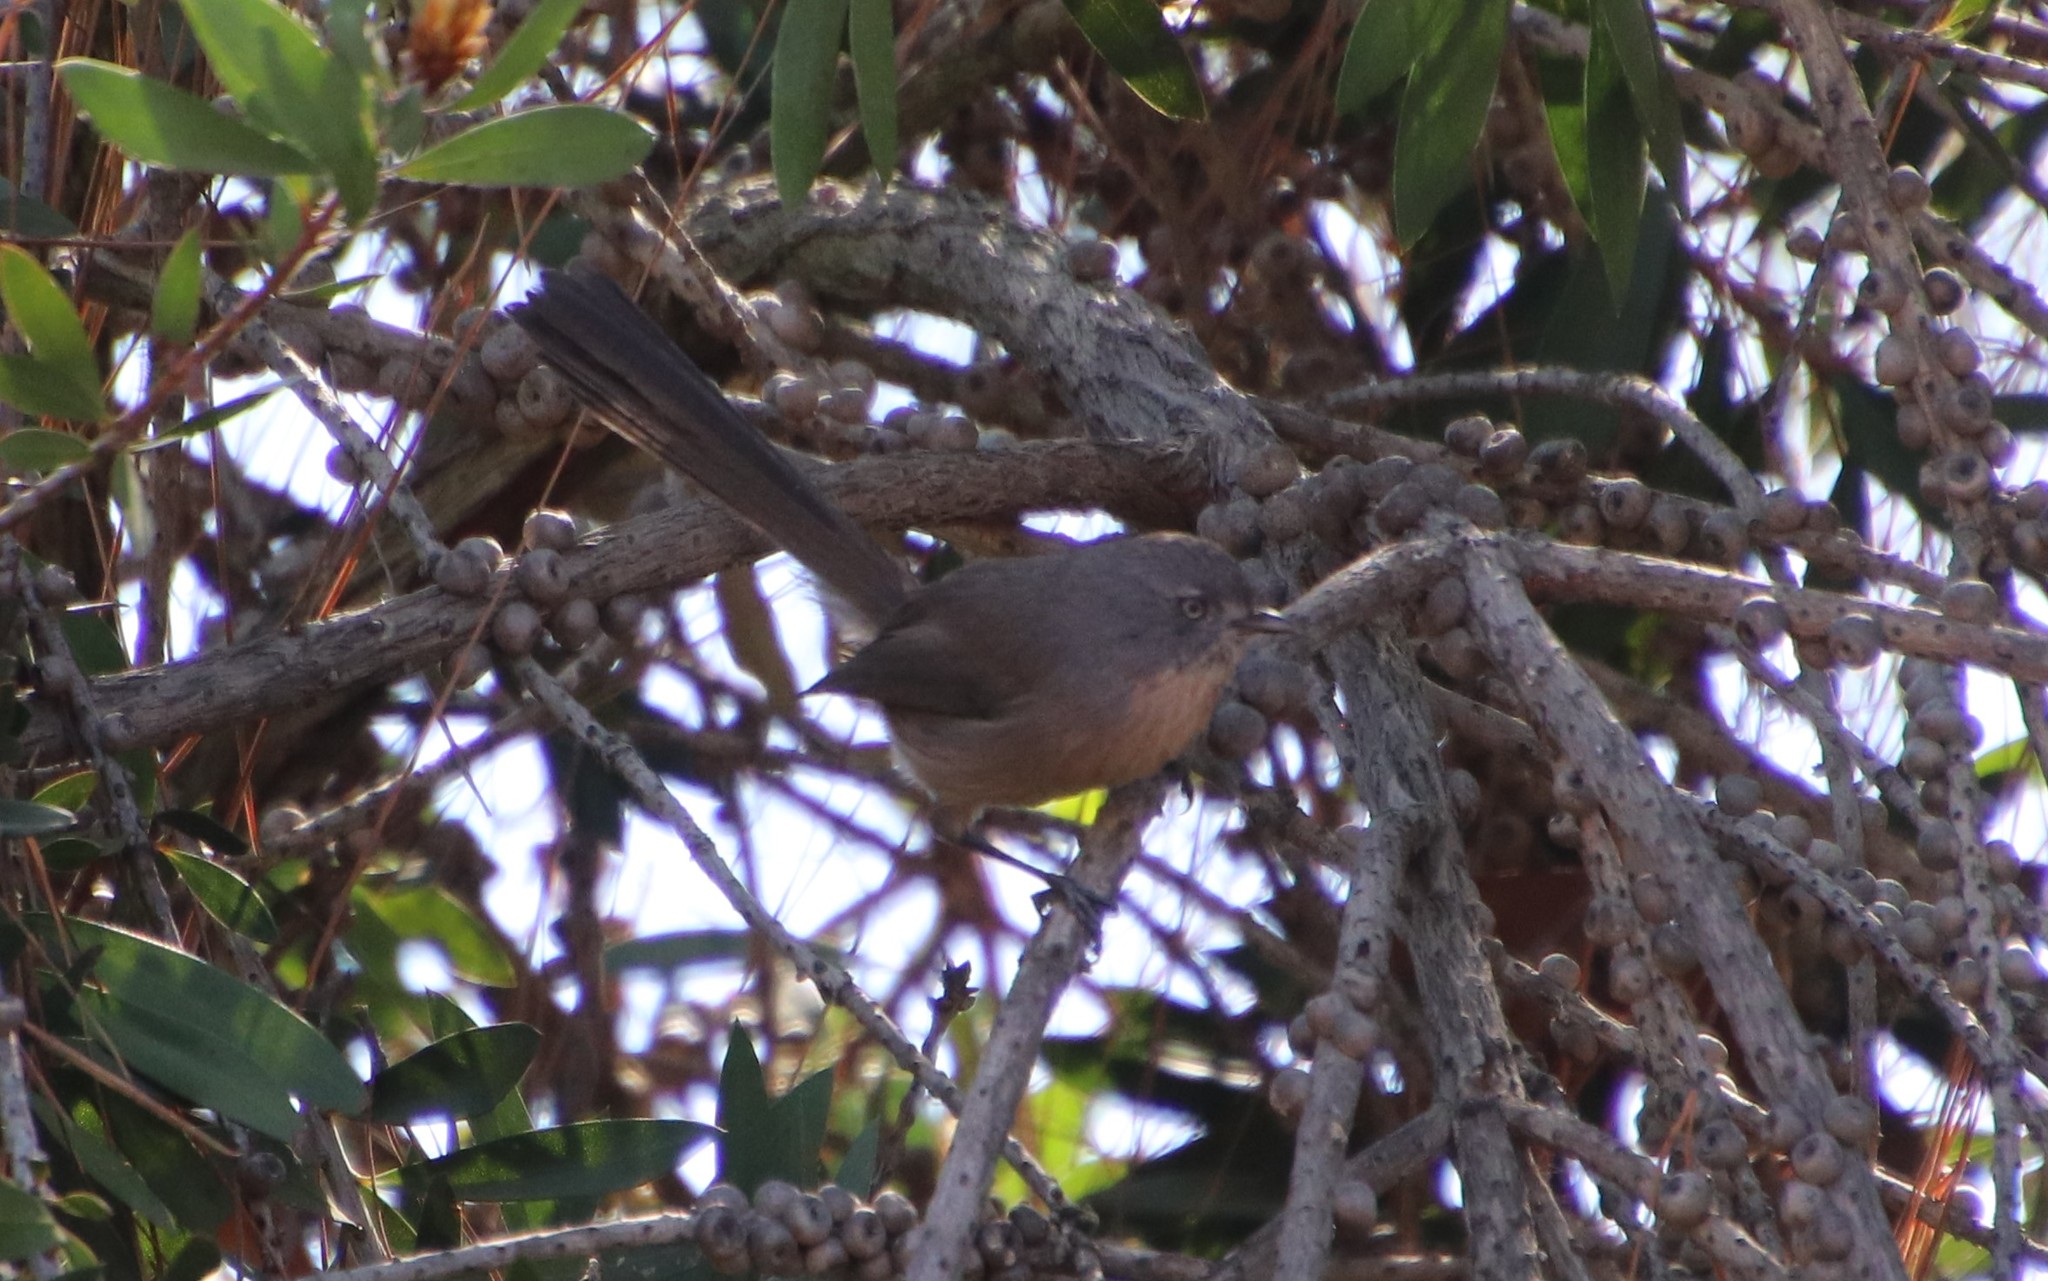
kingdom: Animalia
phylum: Chordata
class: Aves
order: Passeriformes
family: Sylviidae
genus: Chamaea
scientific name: Chamaea fasciata
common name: Wrentit
